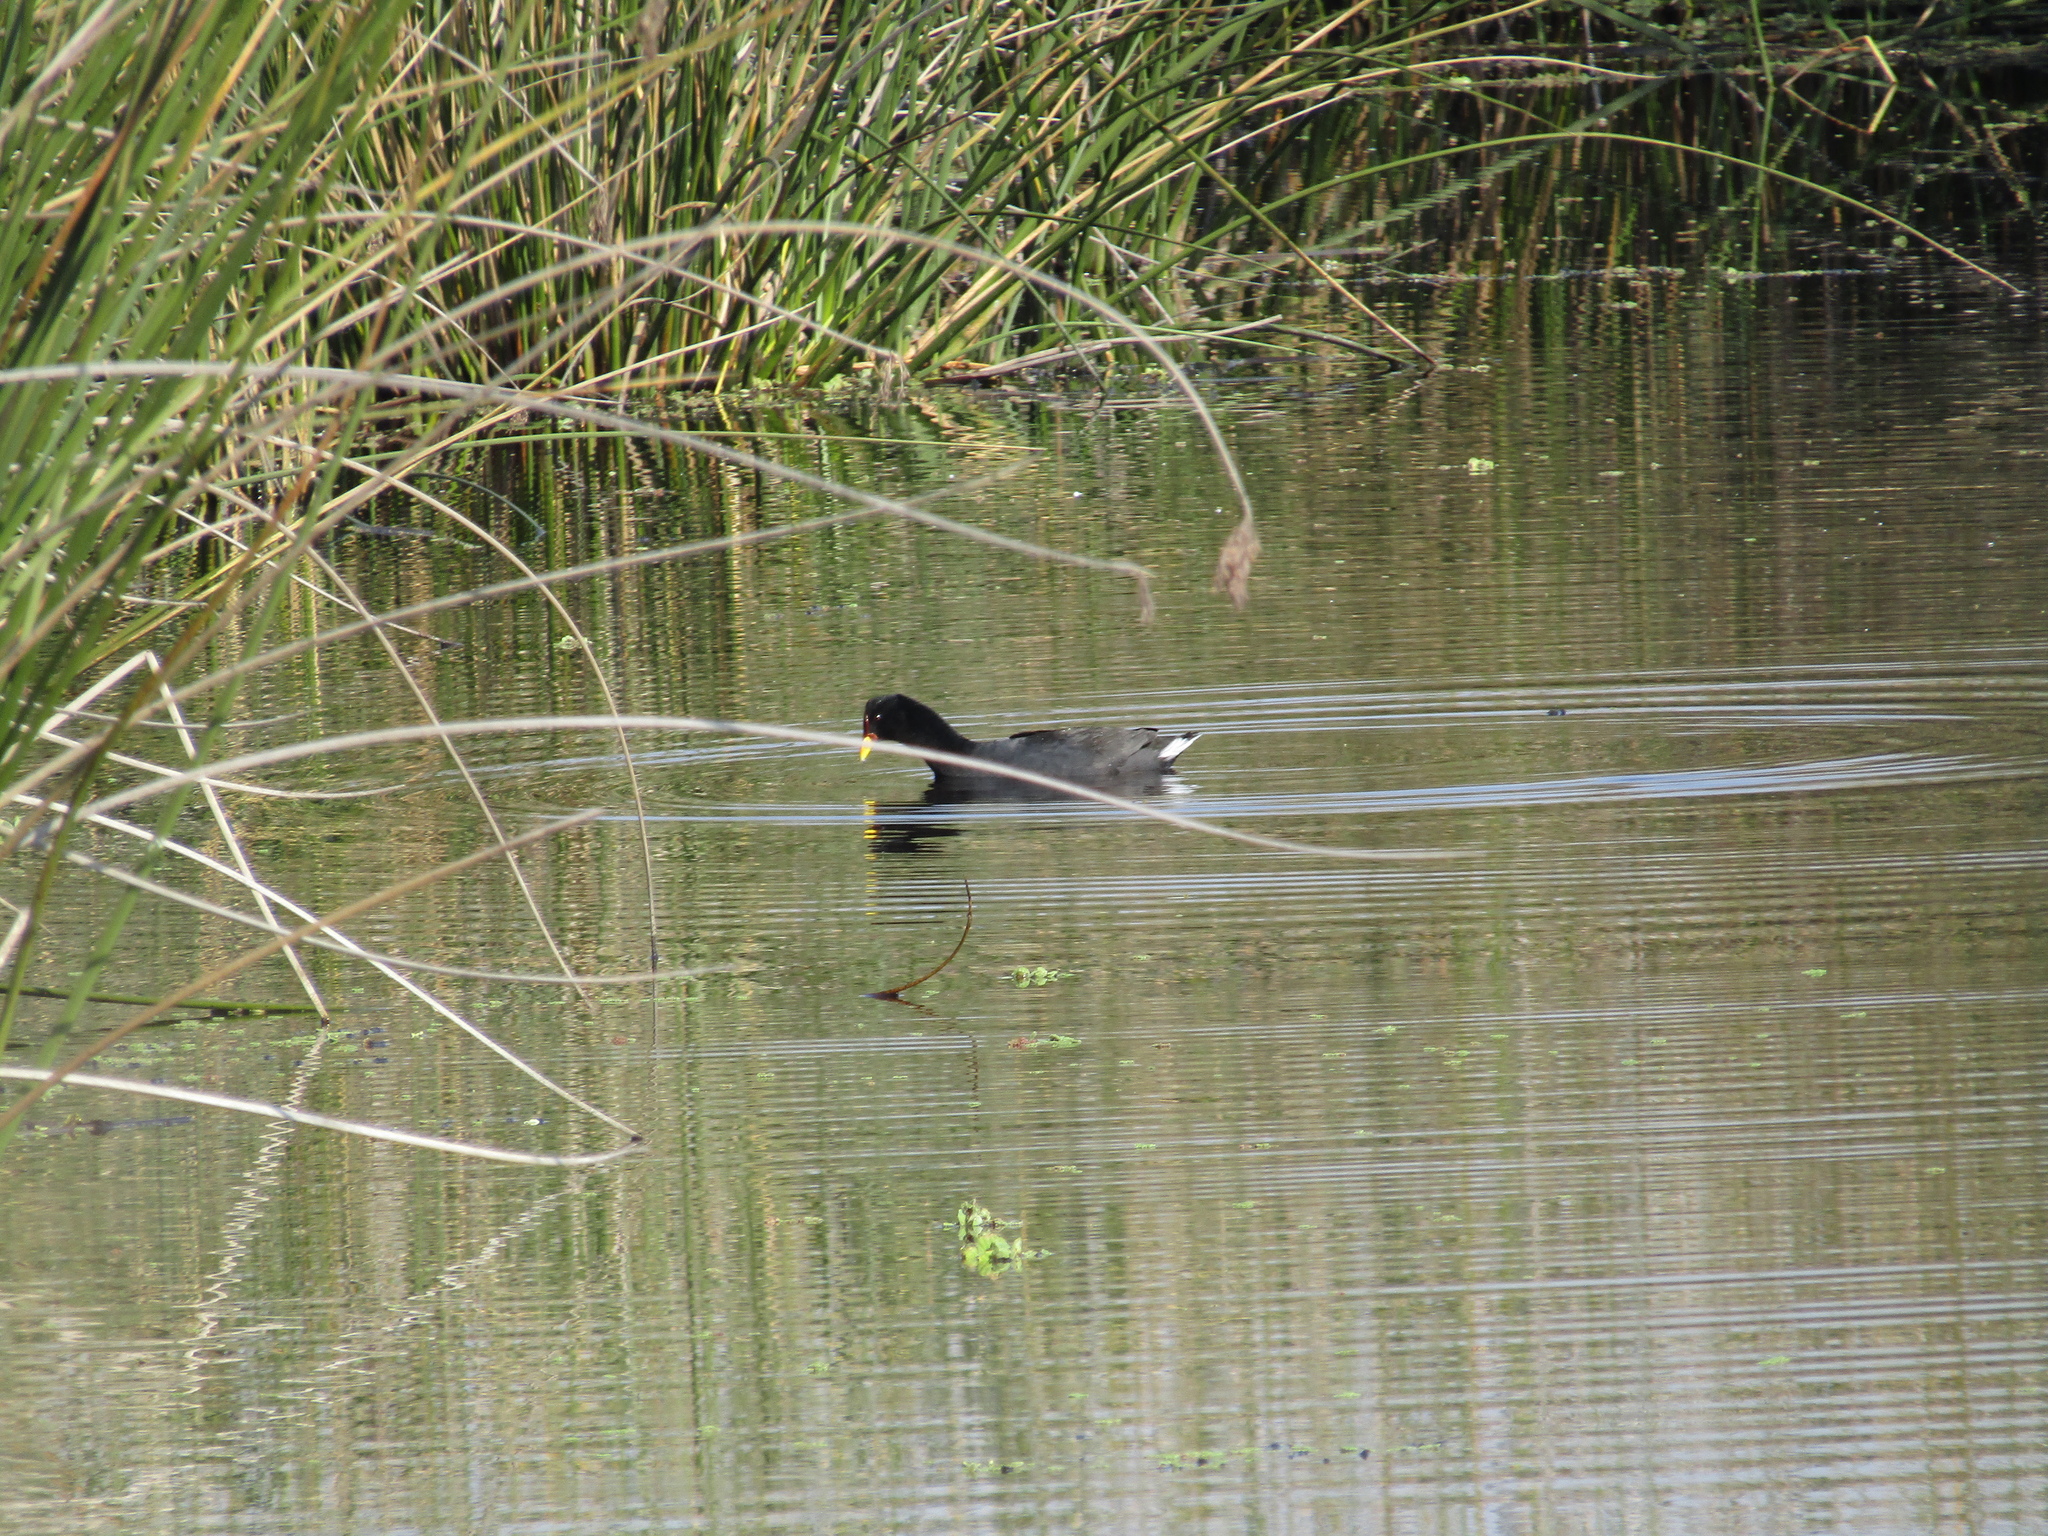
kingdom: Animalia
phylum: Chordata
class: Aves
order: Gruiformes
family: Rallidae
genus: Fulica
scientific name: Fulica rufifrons
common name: Red-fronted coot
